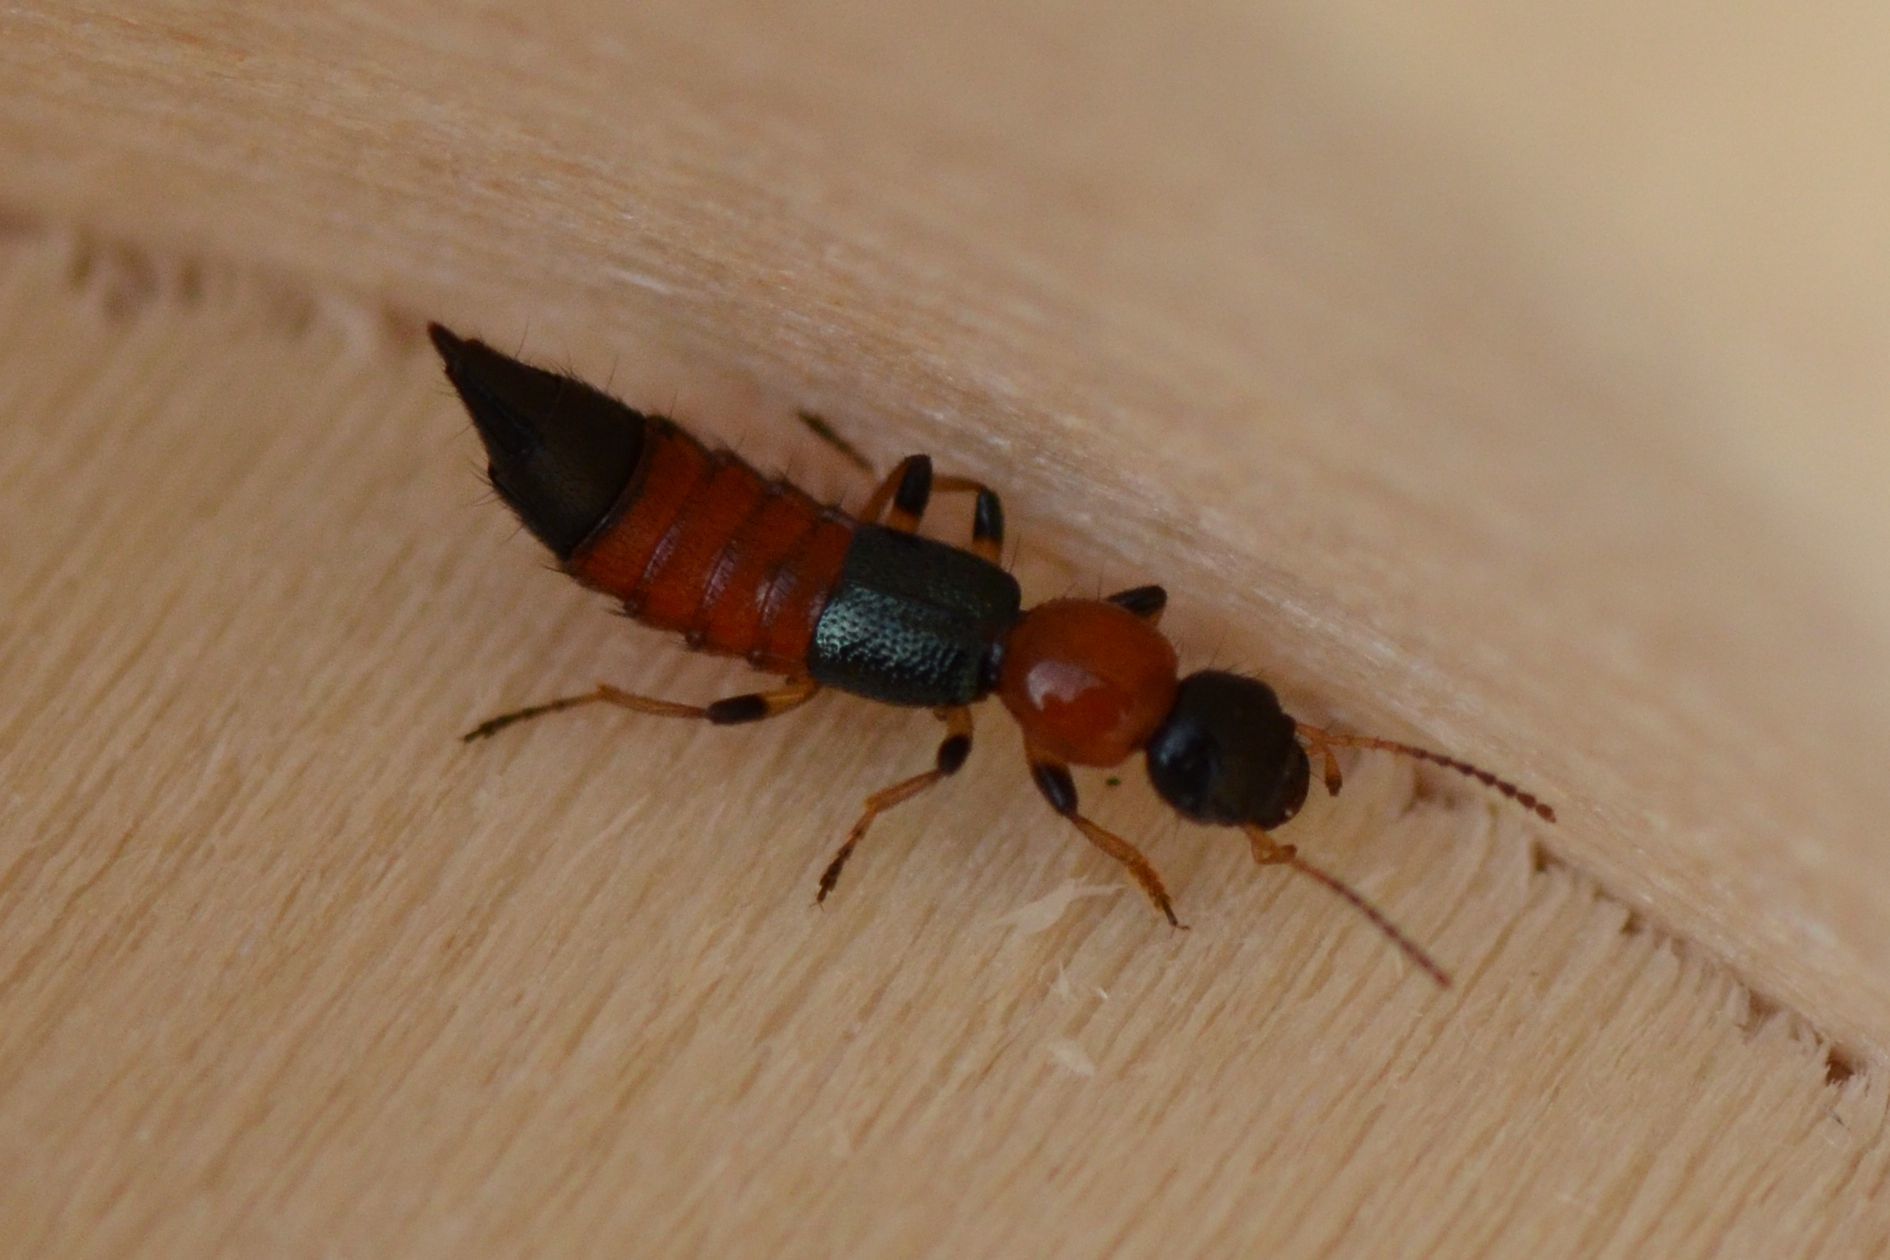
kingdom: Animalia
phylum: Arthropoda
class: Insecta
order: Coleoptera
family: Staphylinidae
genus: Paederus
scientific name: Paederus littoralis
